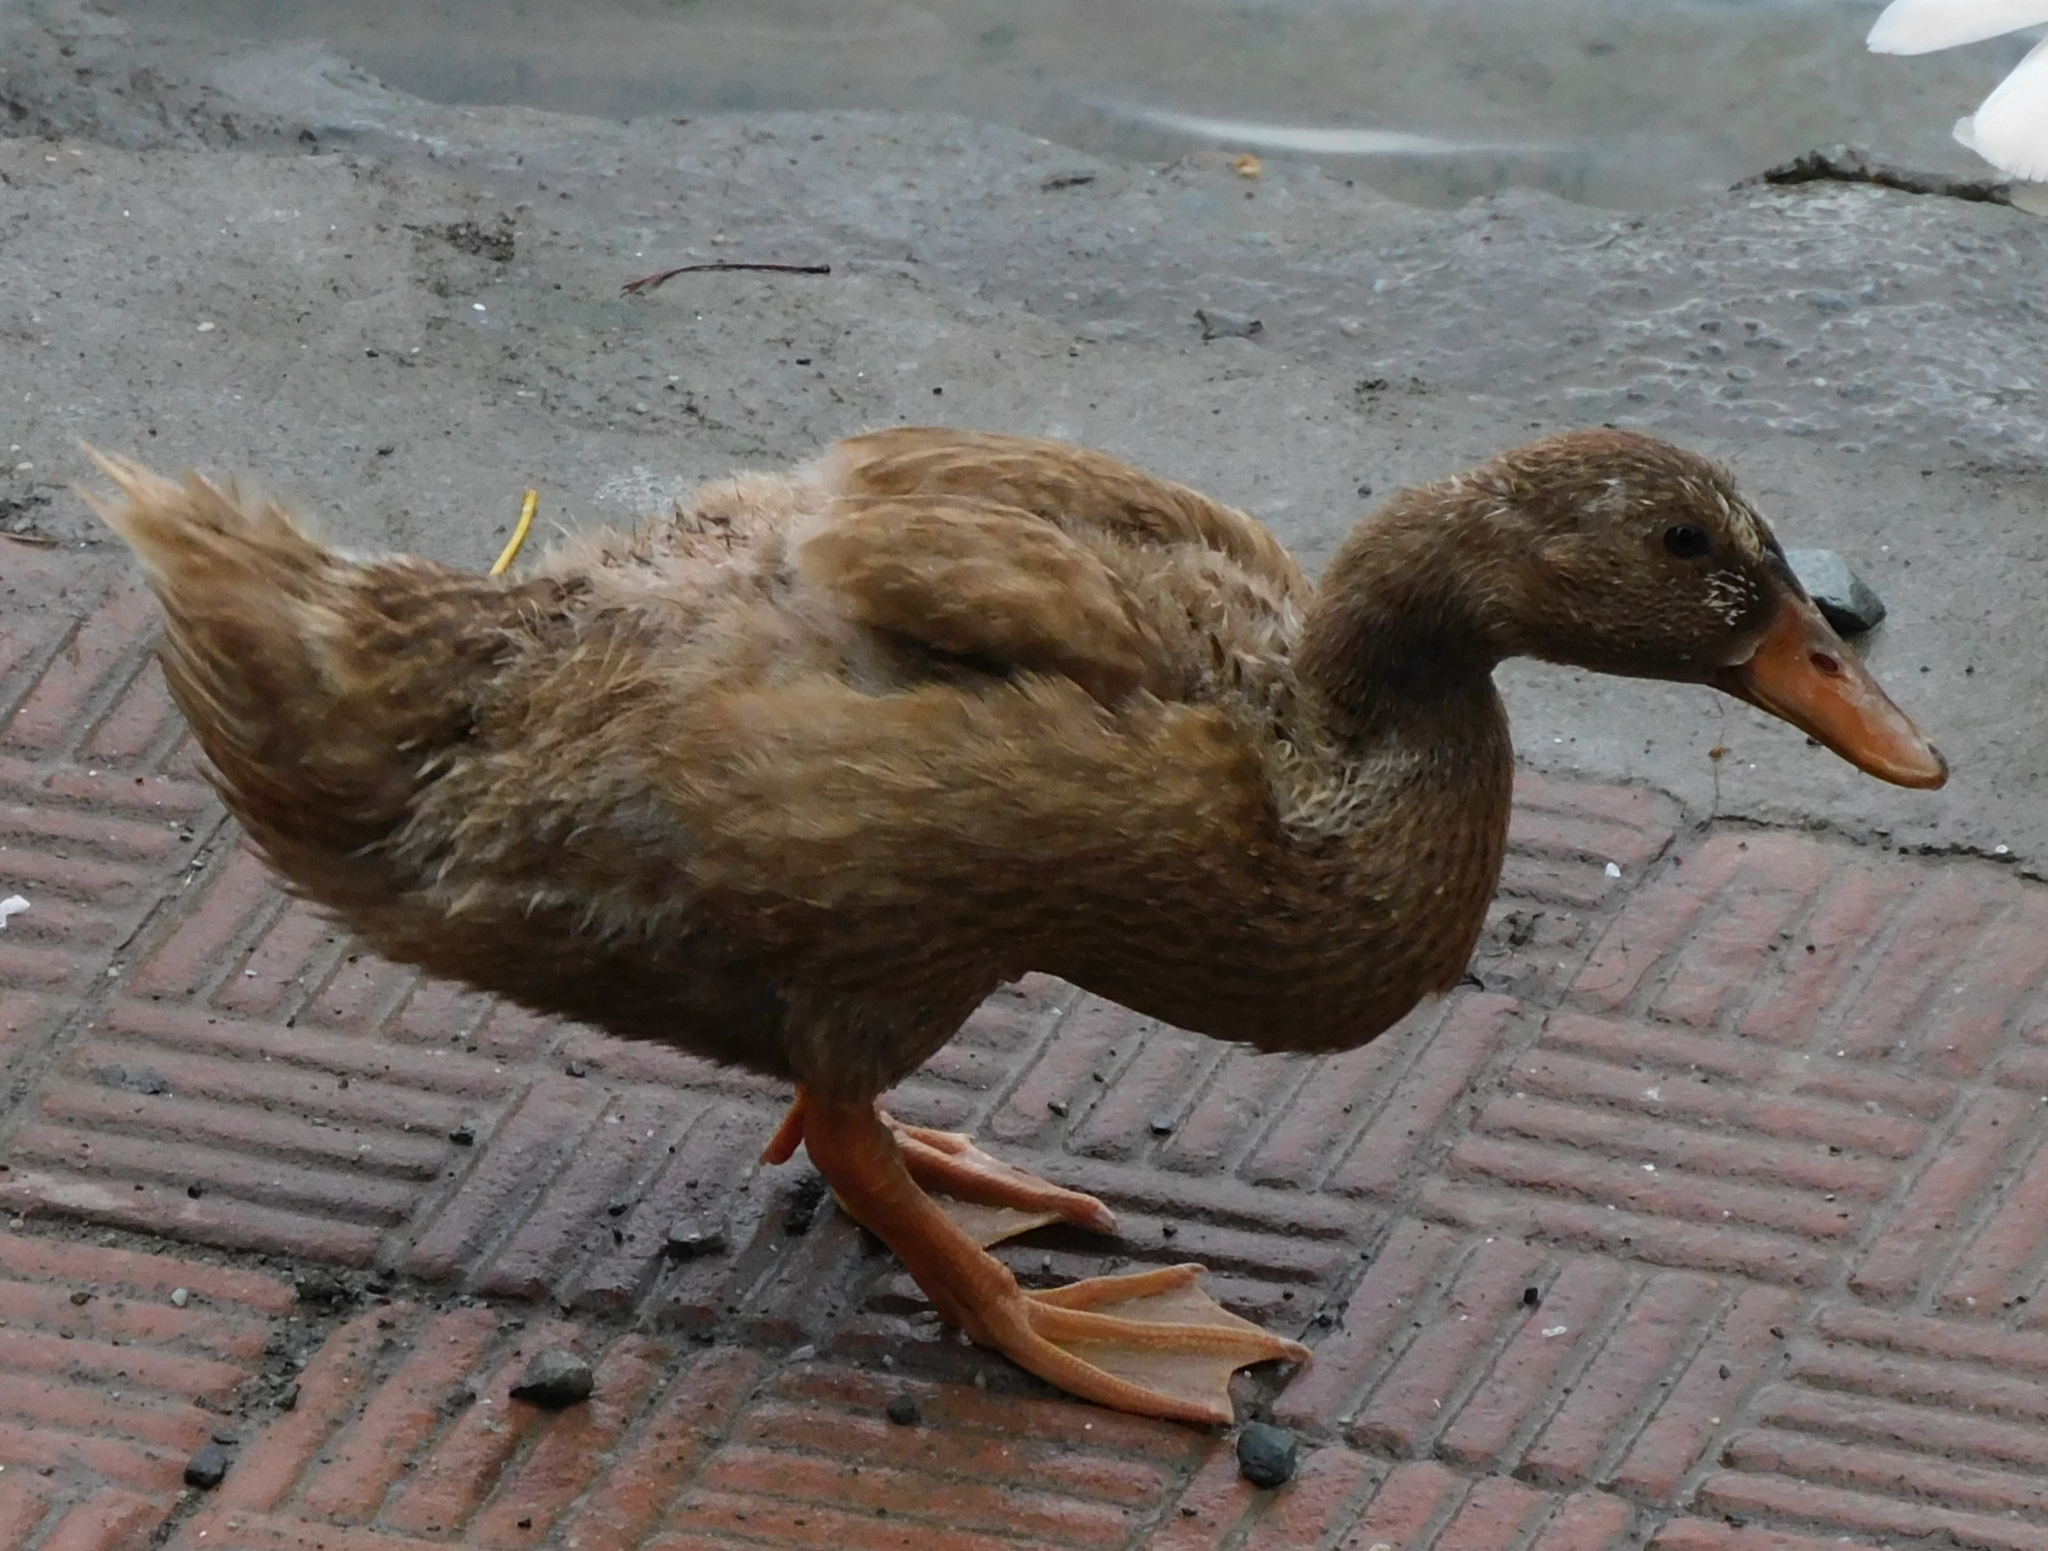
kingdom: Animalia
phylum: Chordata
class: Aves
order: Anseriformes
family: Anatidae
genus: Anas
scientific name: Anas platyrhynchos
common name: Mallard
